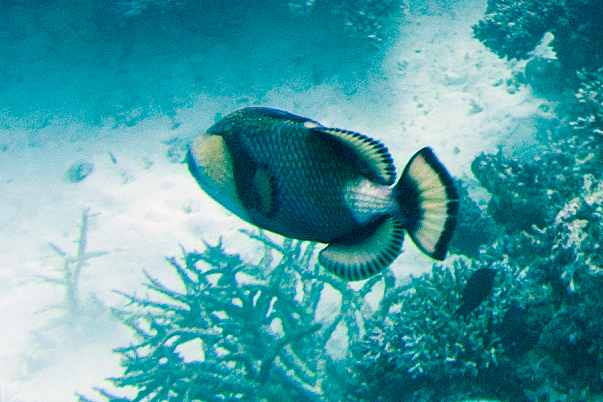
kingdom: Animalia
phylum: Chordata
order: Tetraodontiformes
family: Balistidae
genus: Balistoides
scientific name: Balistoides viridescens
